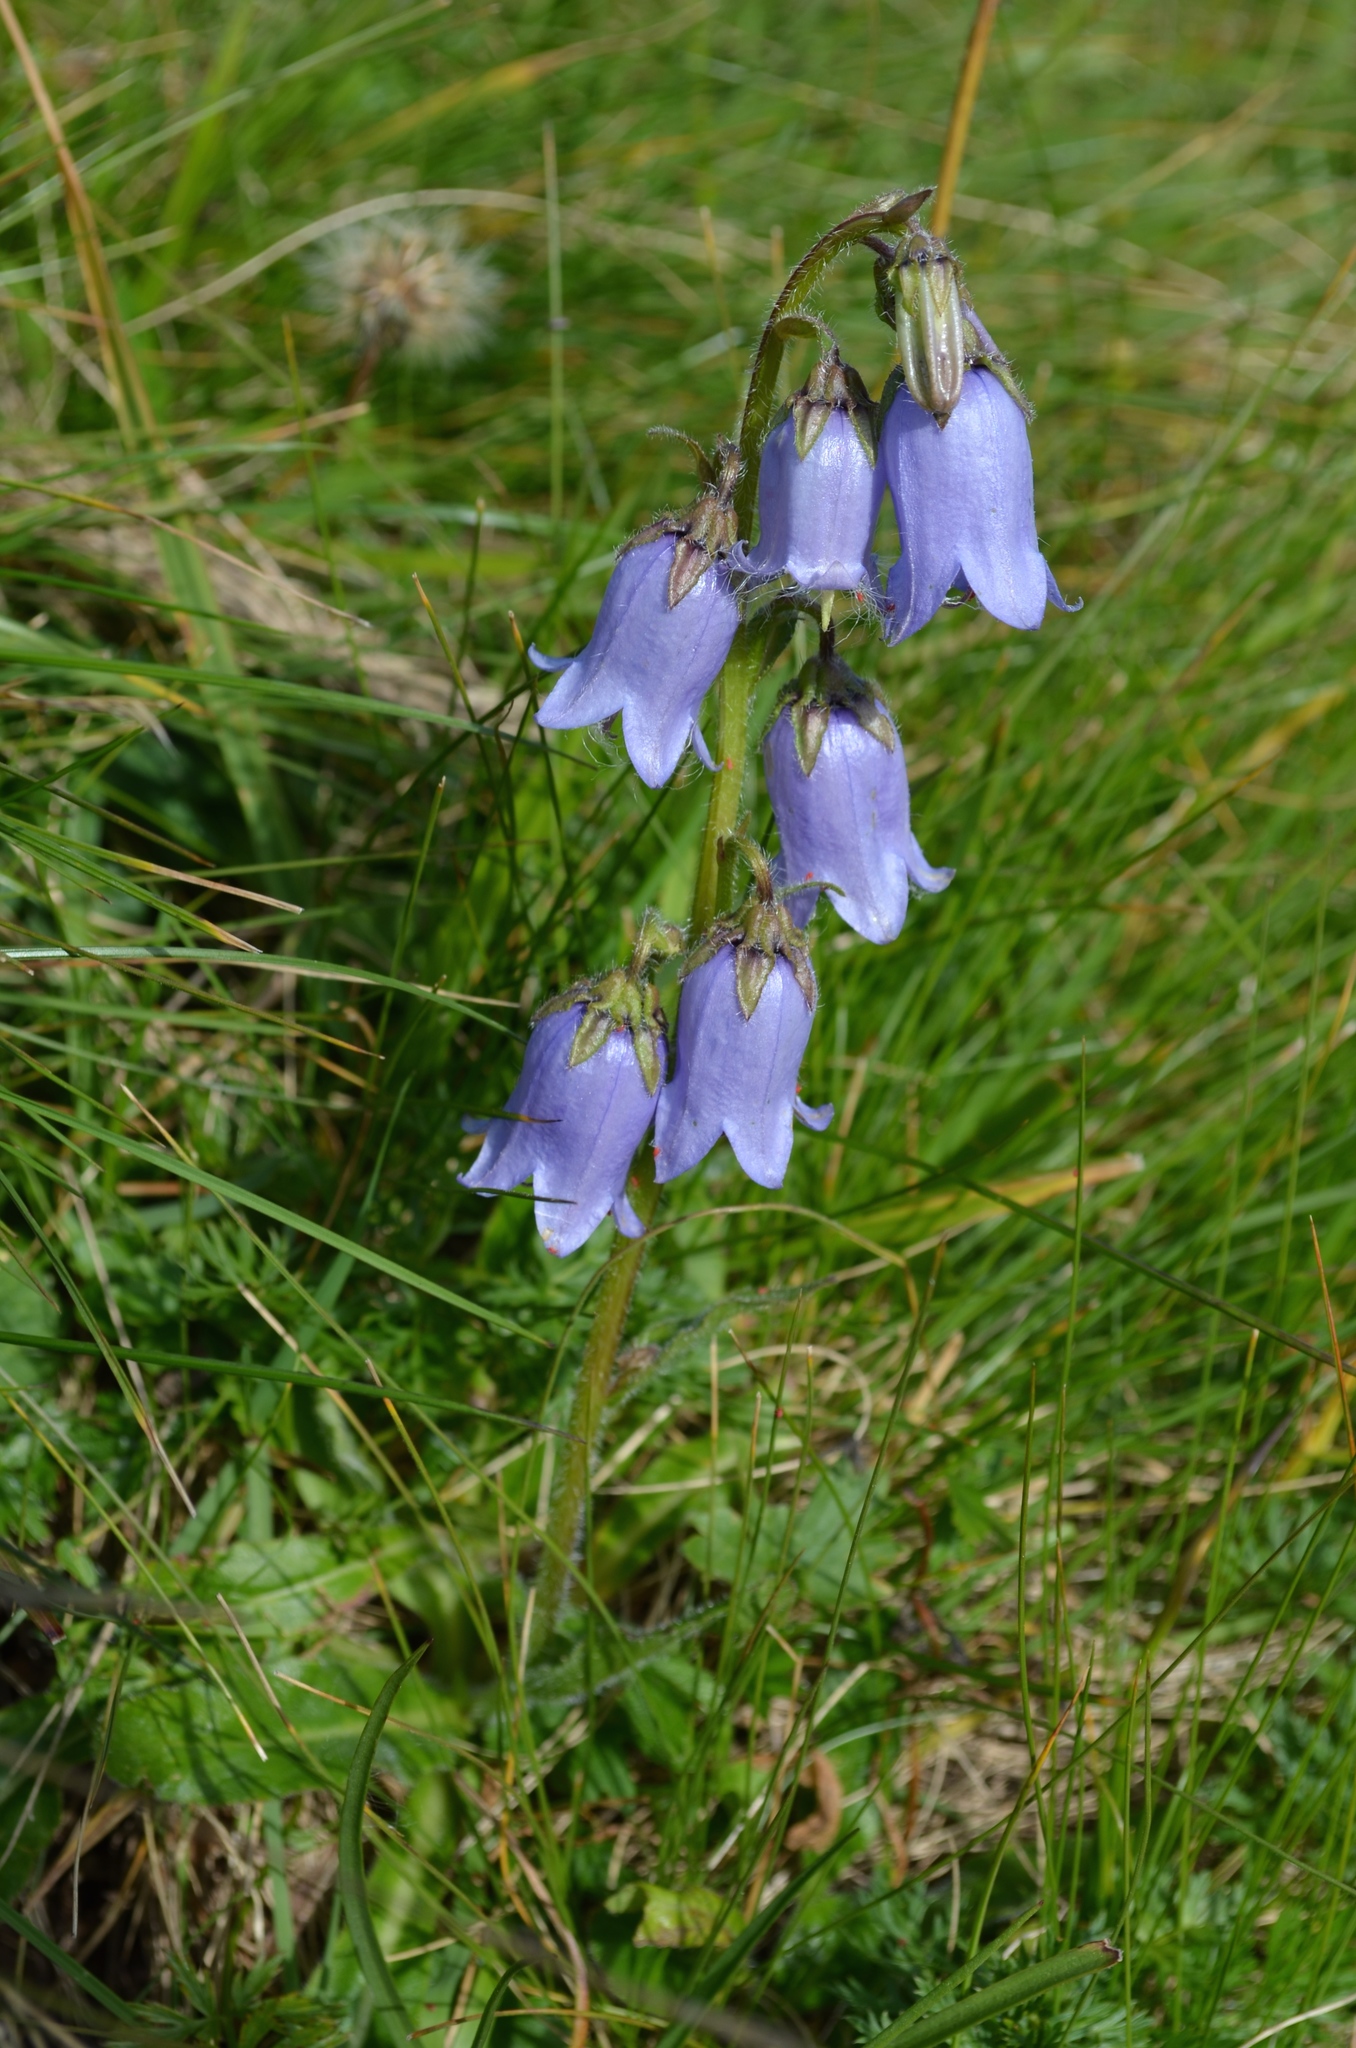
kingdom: Plantae
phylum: Tracheophyta
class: Magnoliopsida
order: Asterales
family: Campanulaceae
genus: Campanula
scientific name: Campanula barbata
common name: Bearded bellflower
